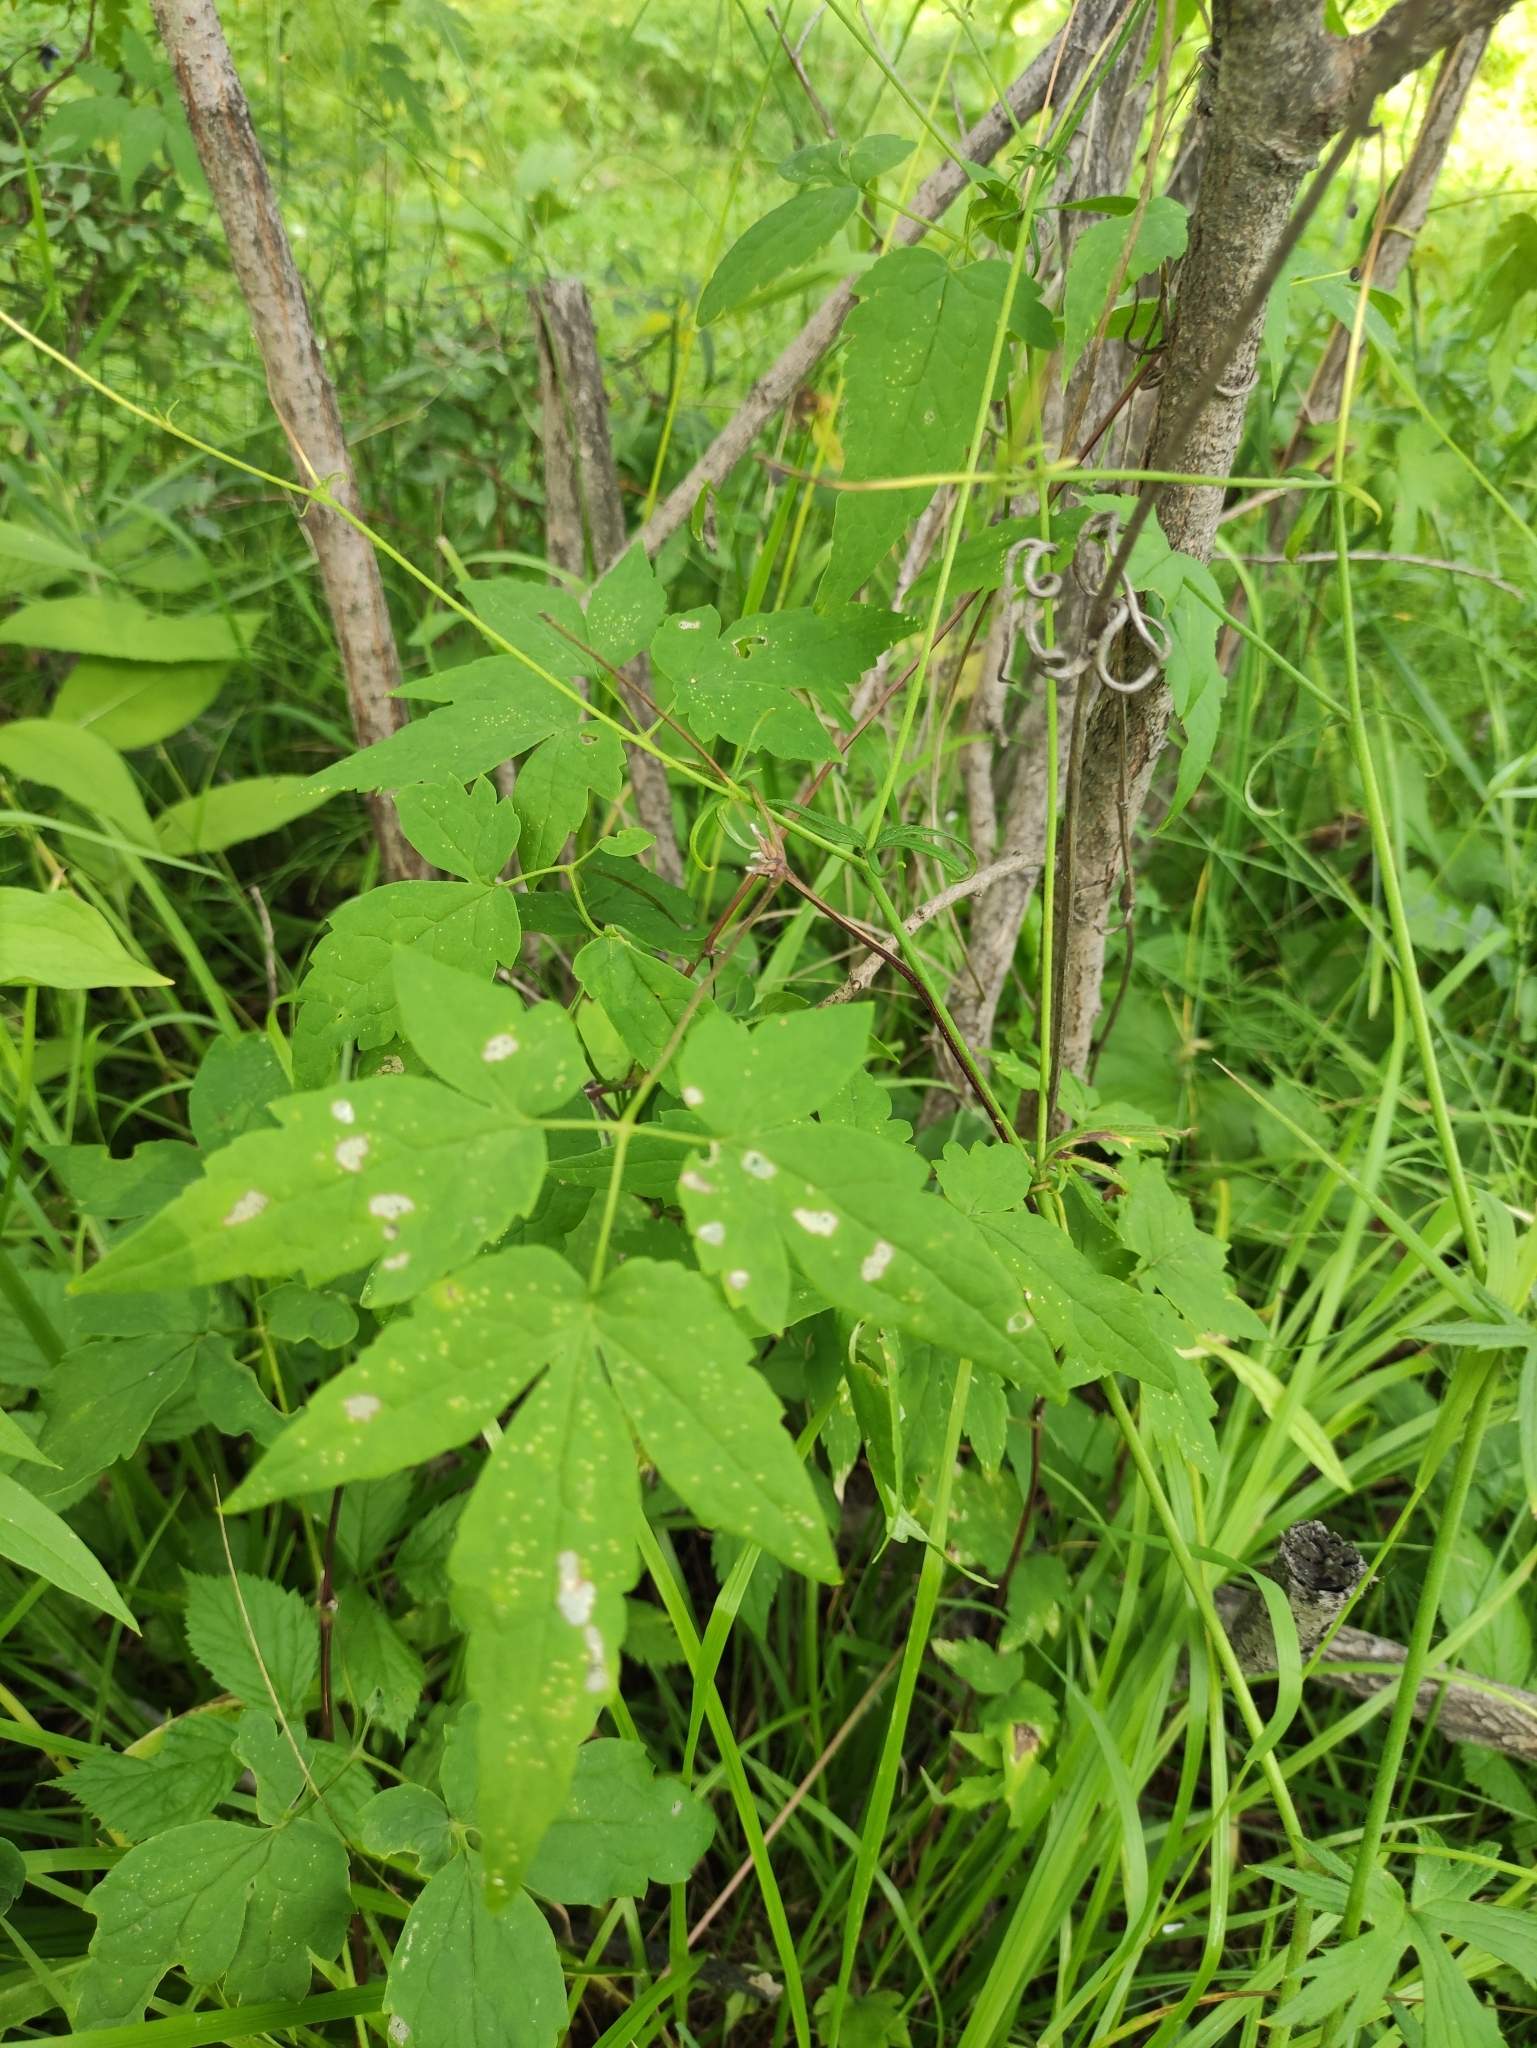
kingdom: Plantae
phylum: Tracheophyta
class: Magnoliopsida
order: Ranunculales
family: Ranunculaceae
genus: Clematis
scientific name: Clematis sibirica
